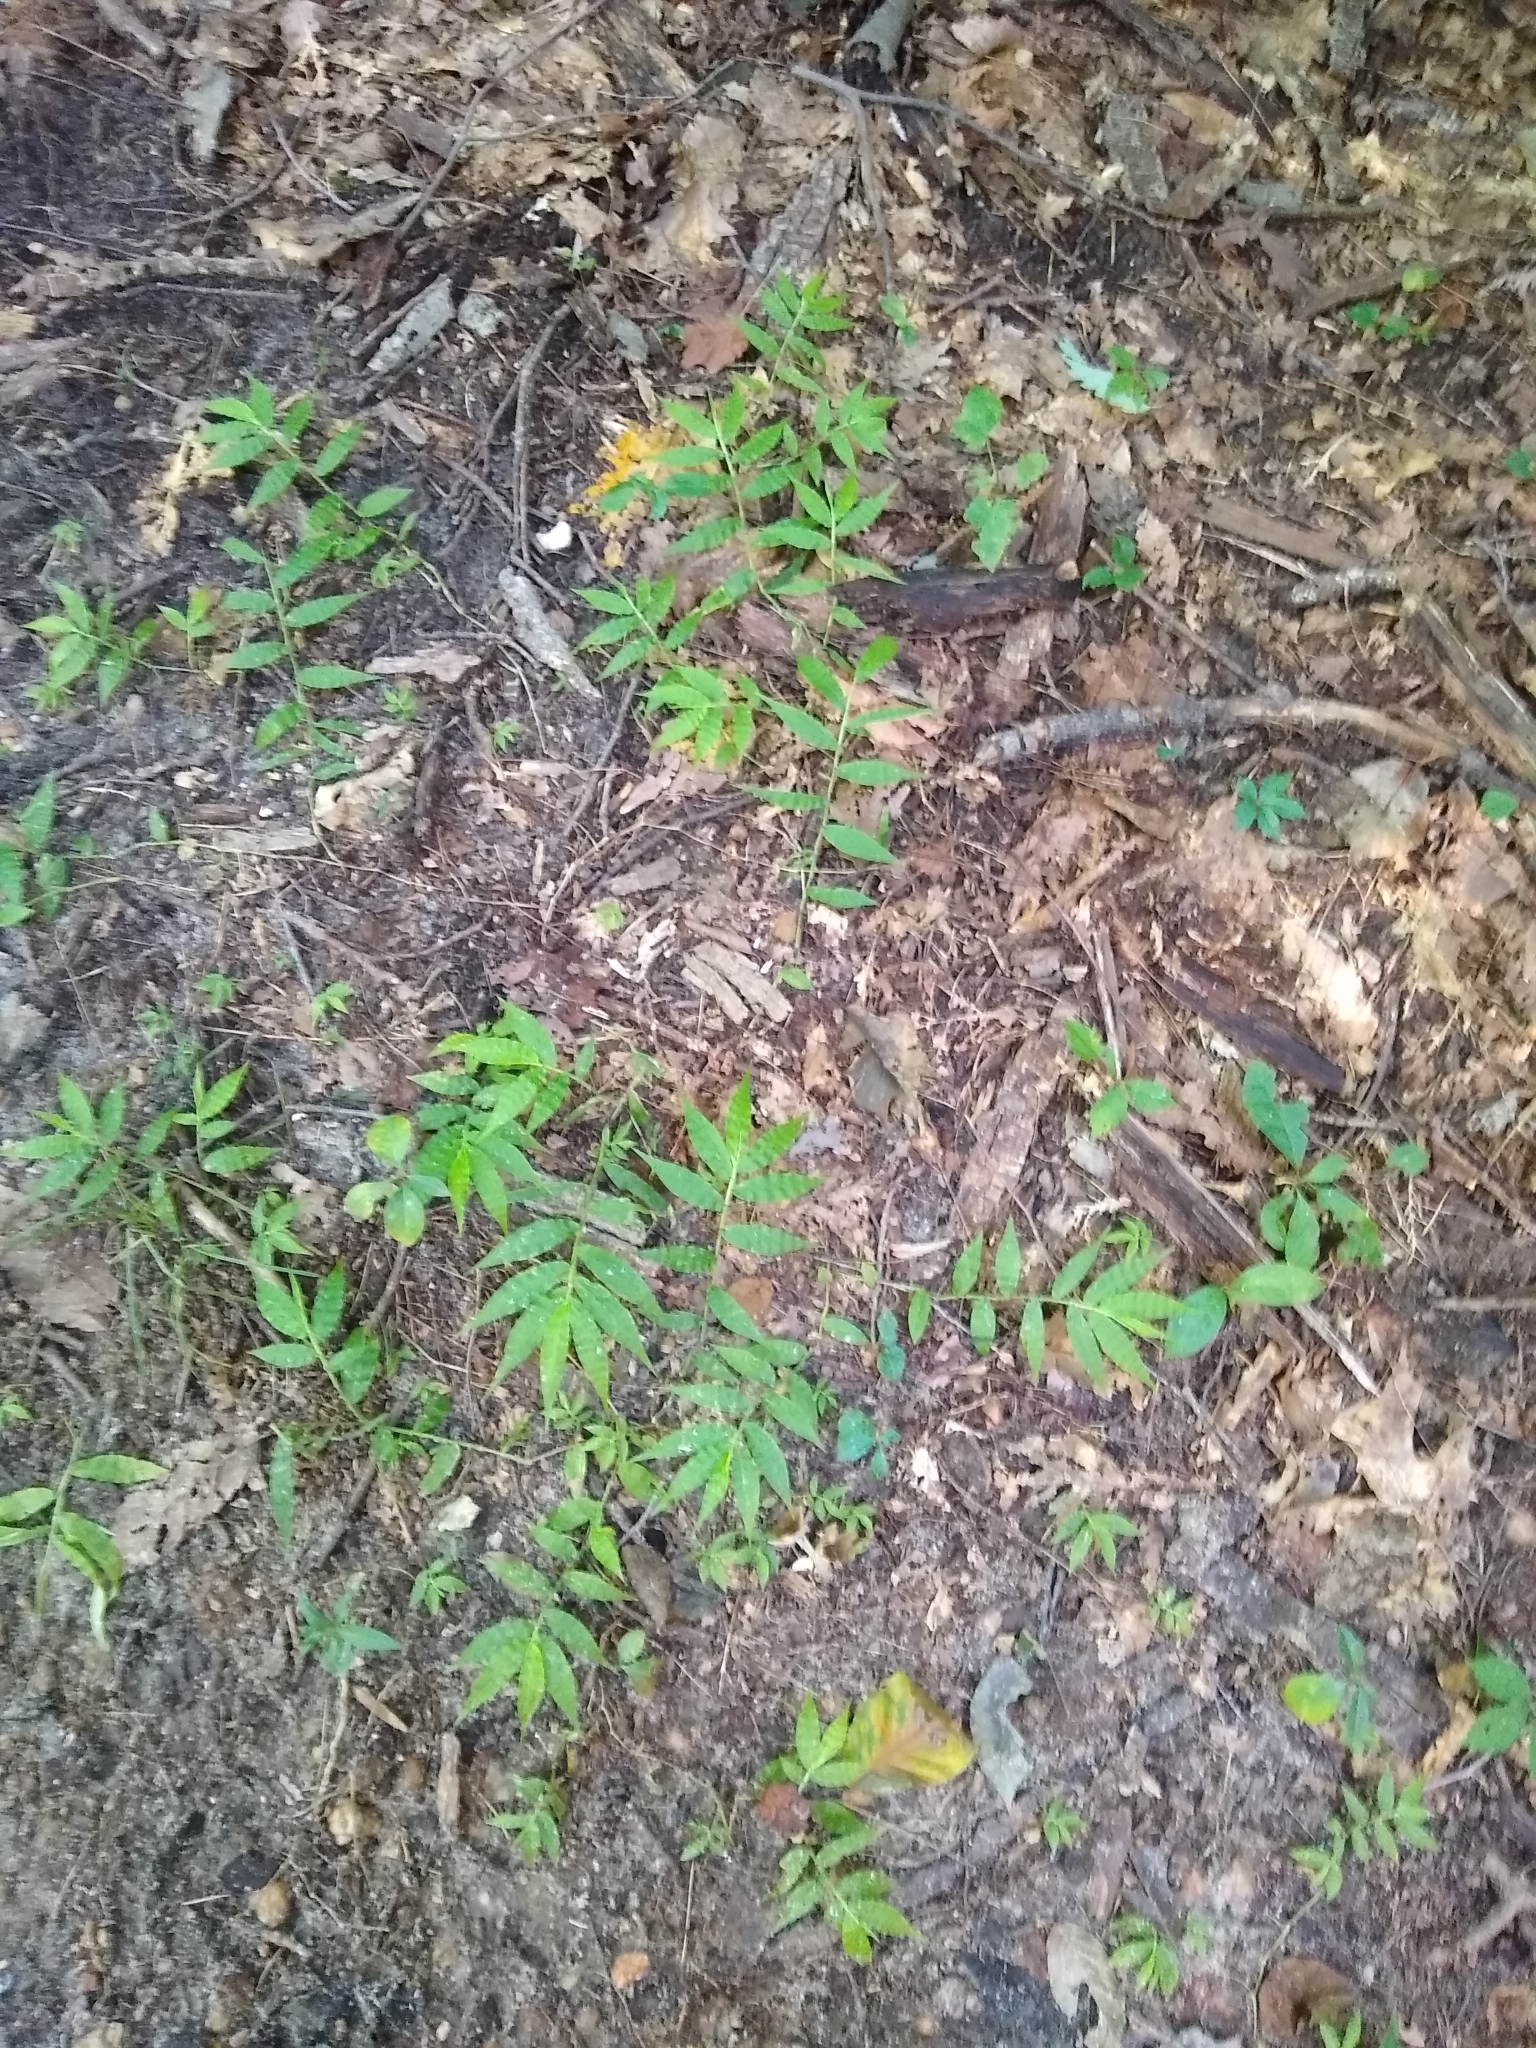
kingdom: Plantae
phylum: Tracheophyta
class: Liliopsida
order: Poales
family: Poaceae
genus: Oplismenus
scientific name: Oplismenus undulatifolius
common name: Wavyleaf basketgrass
